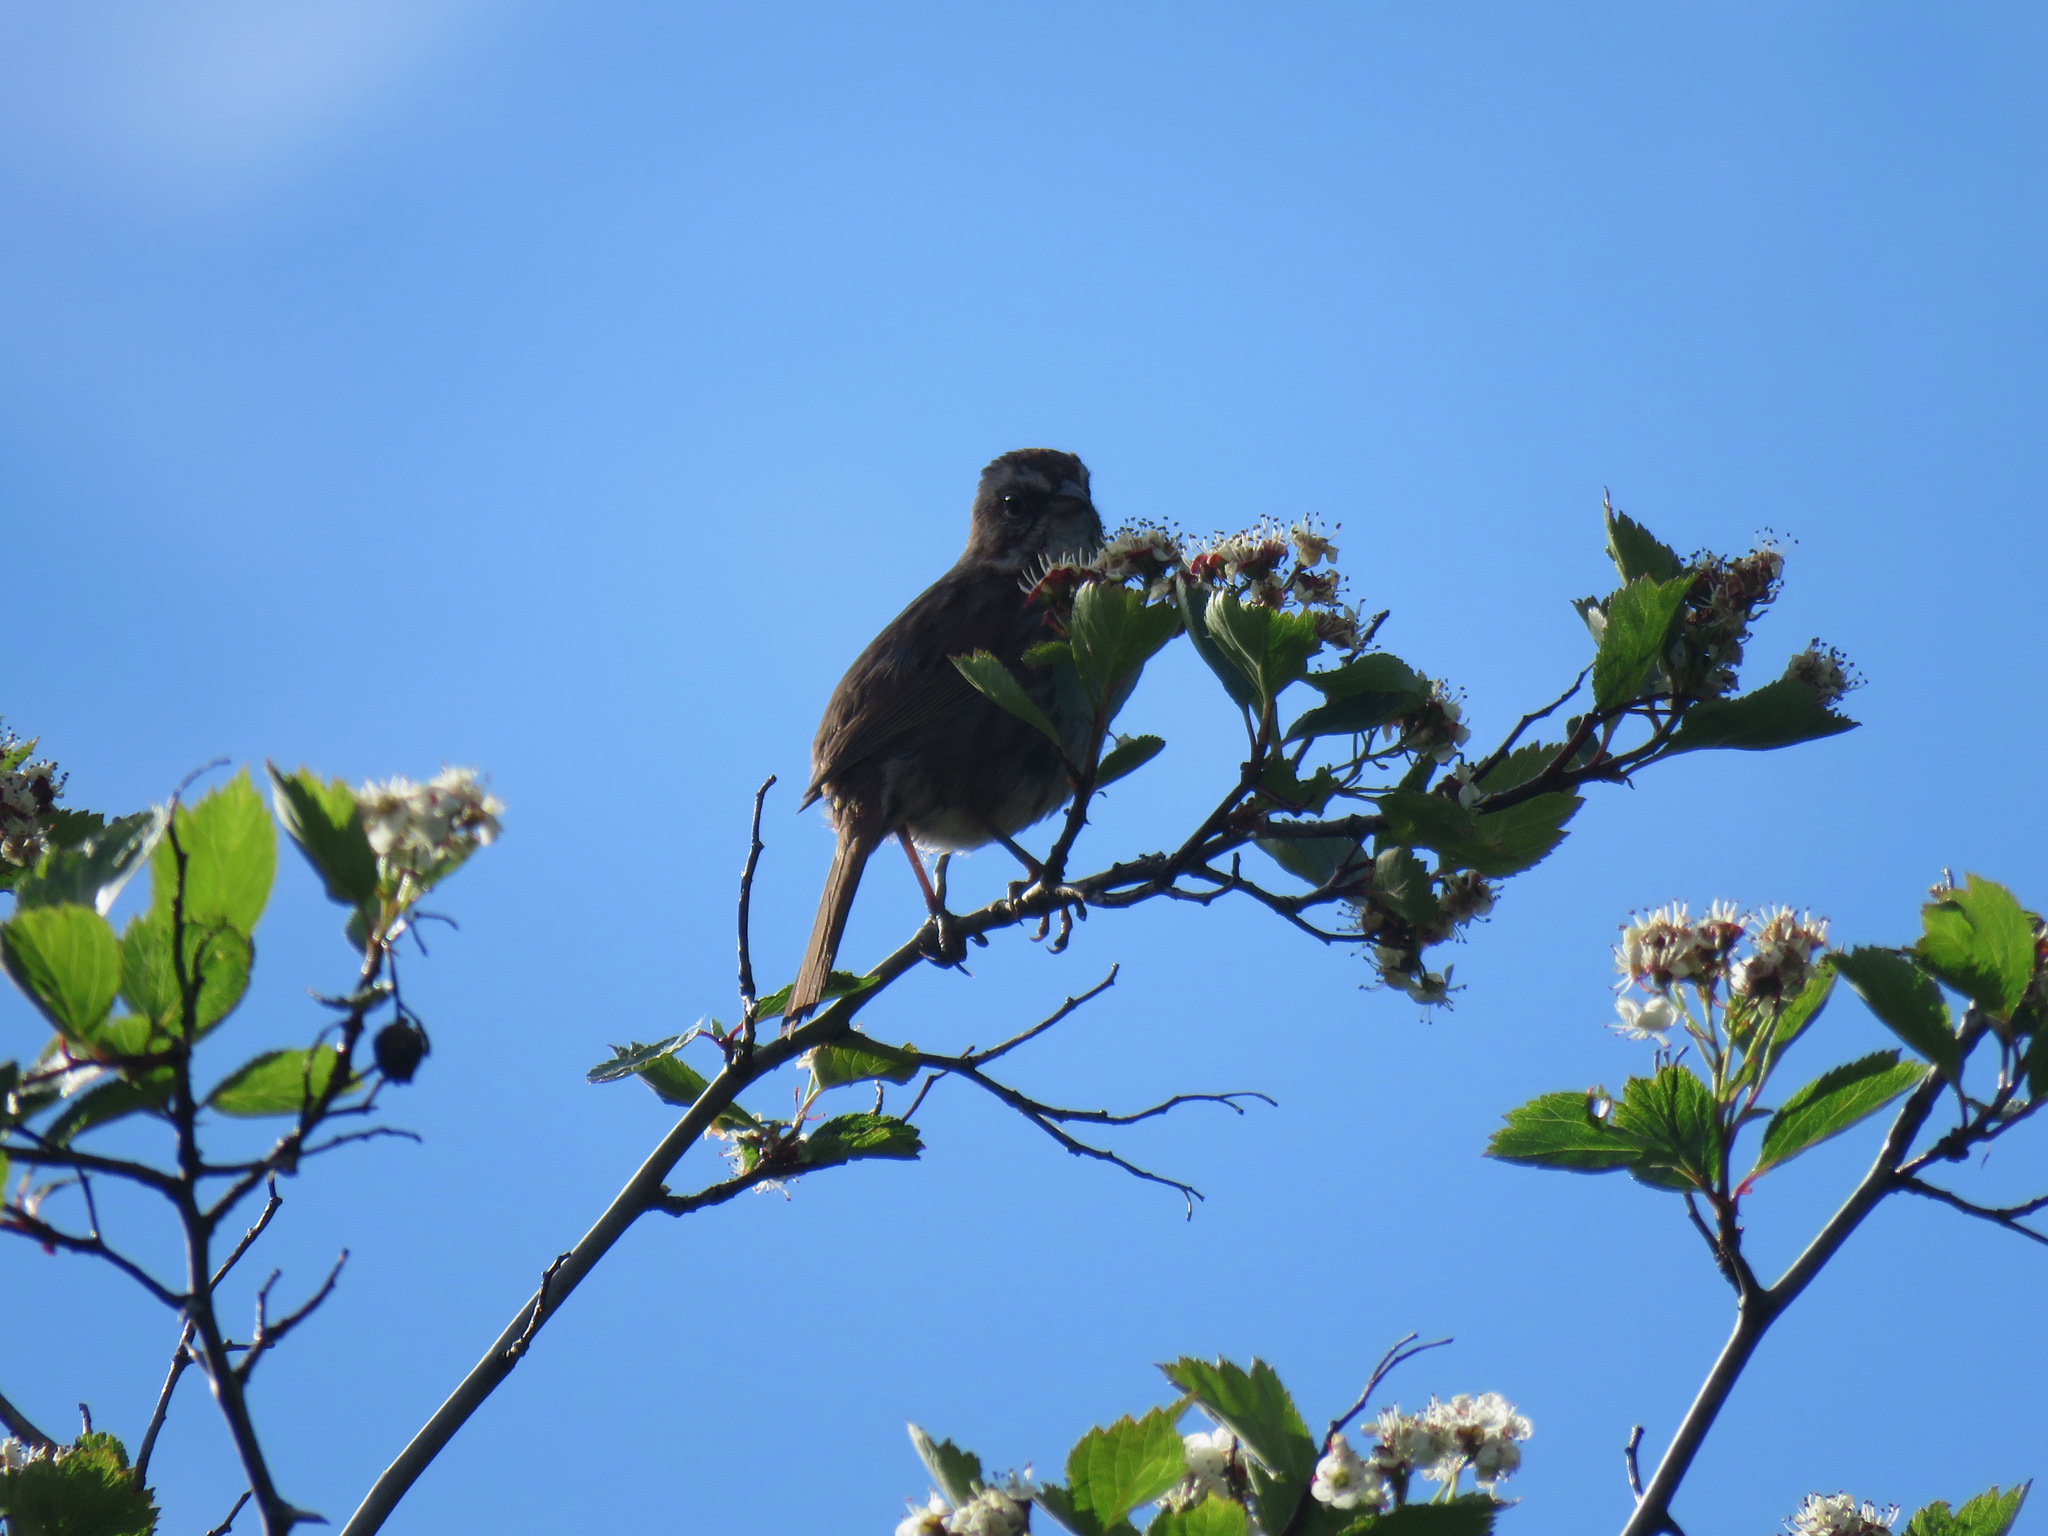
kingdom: Animalia
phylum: Chordata
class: Aves
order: Passeriformes
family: Passerellidae
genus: Melospiza
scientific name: Melospiza melodia
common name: Song sparrow
